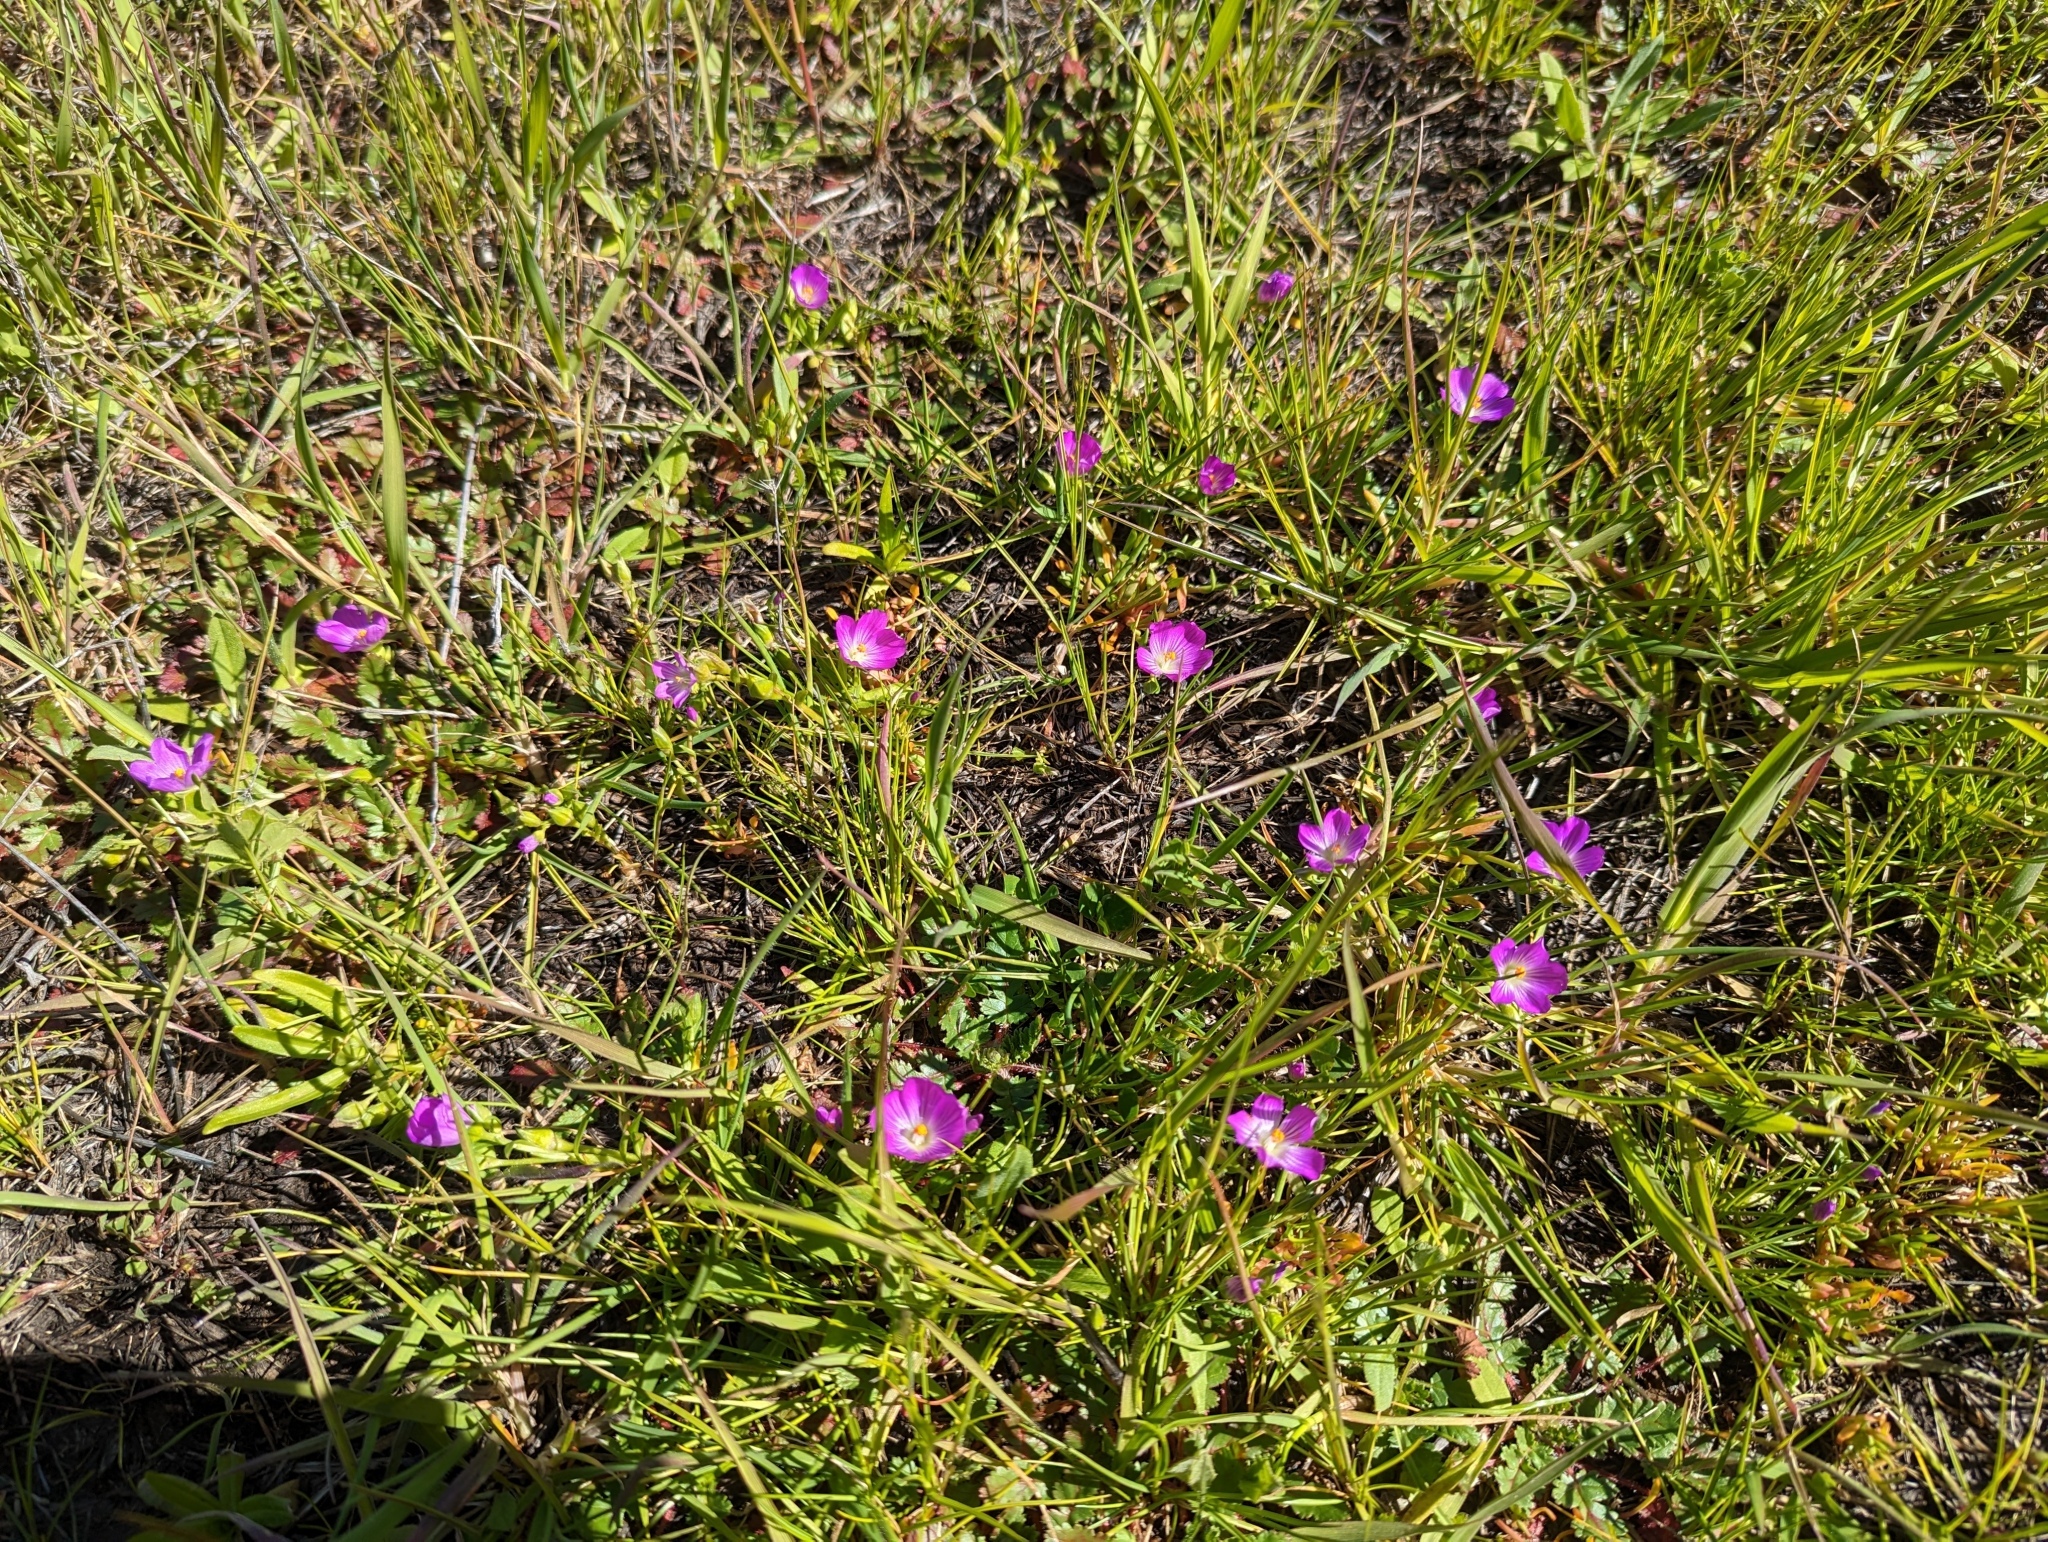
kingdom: Plantae
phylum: Tracheophyta
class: Magnoliopsida
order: Caryophyllales
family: Montiaceae
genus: Calandrinia
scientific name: Calandrinia menziesii
